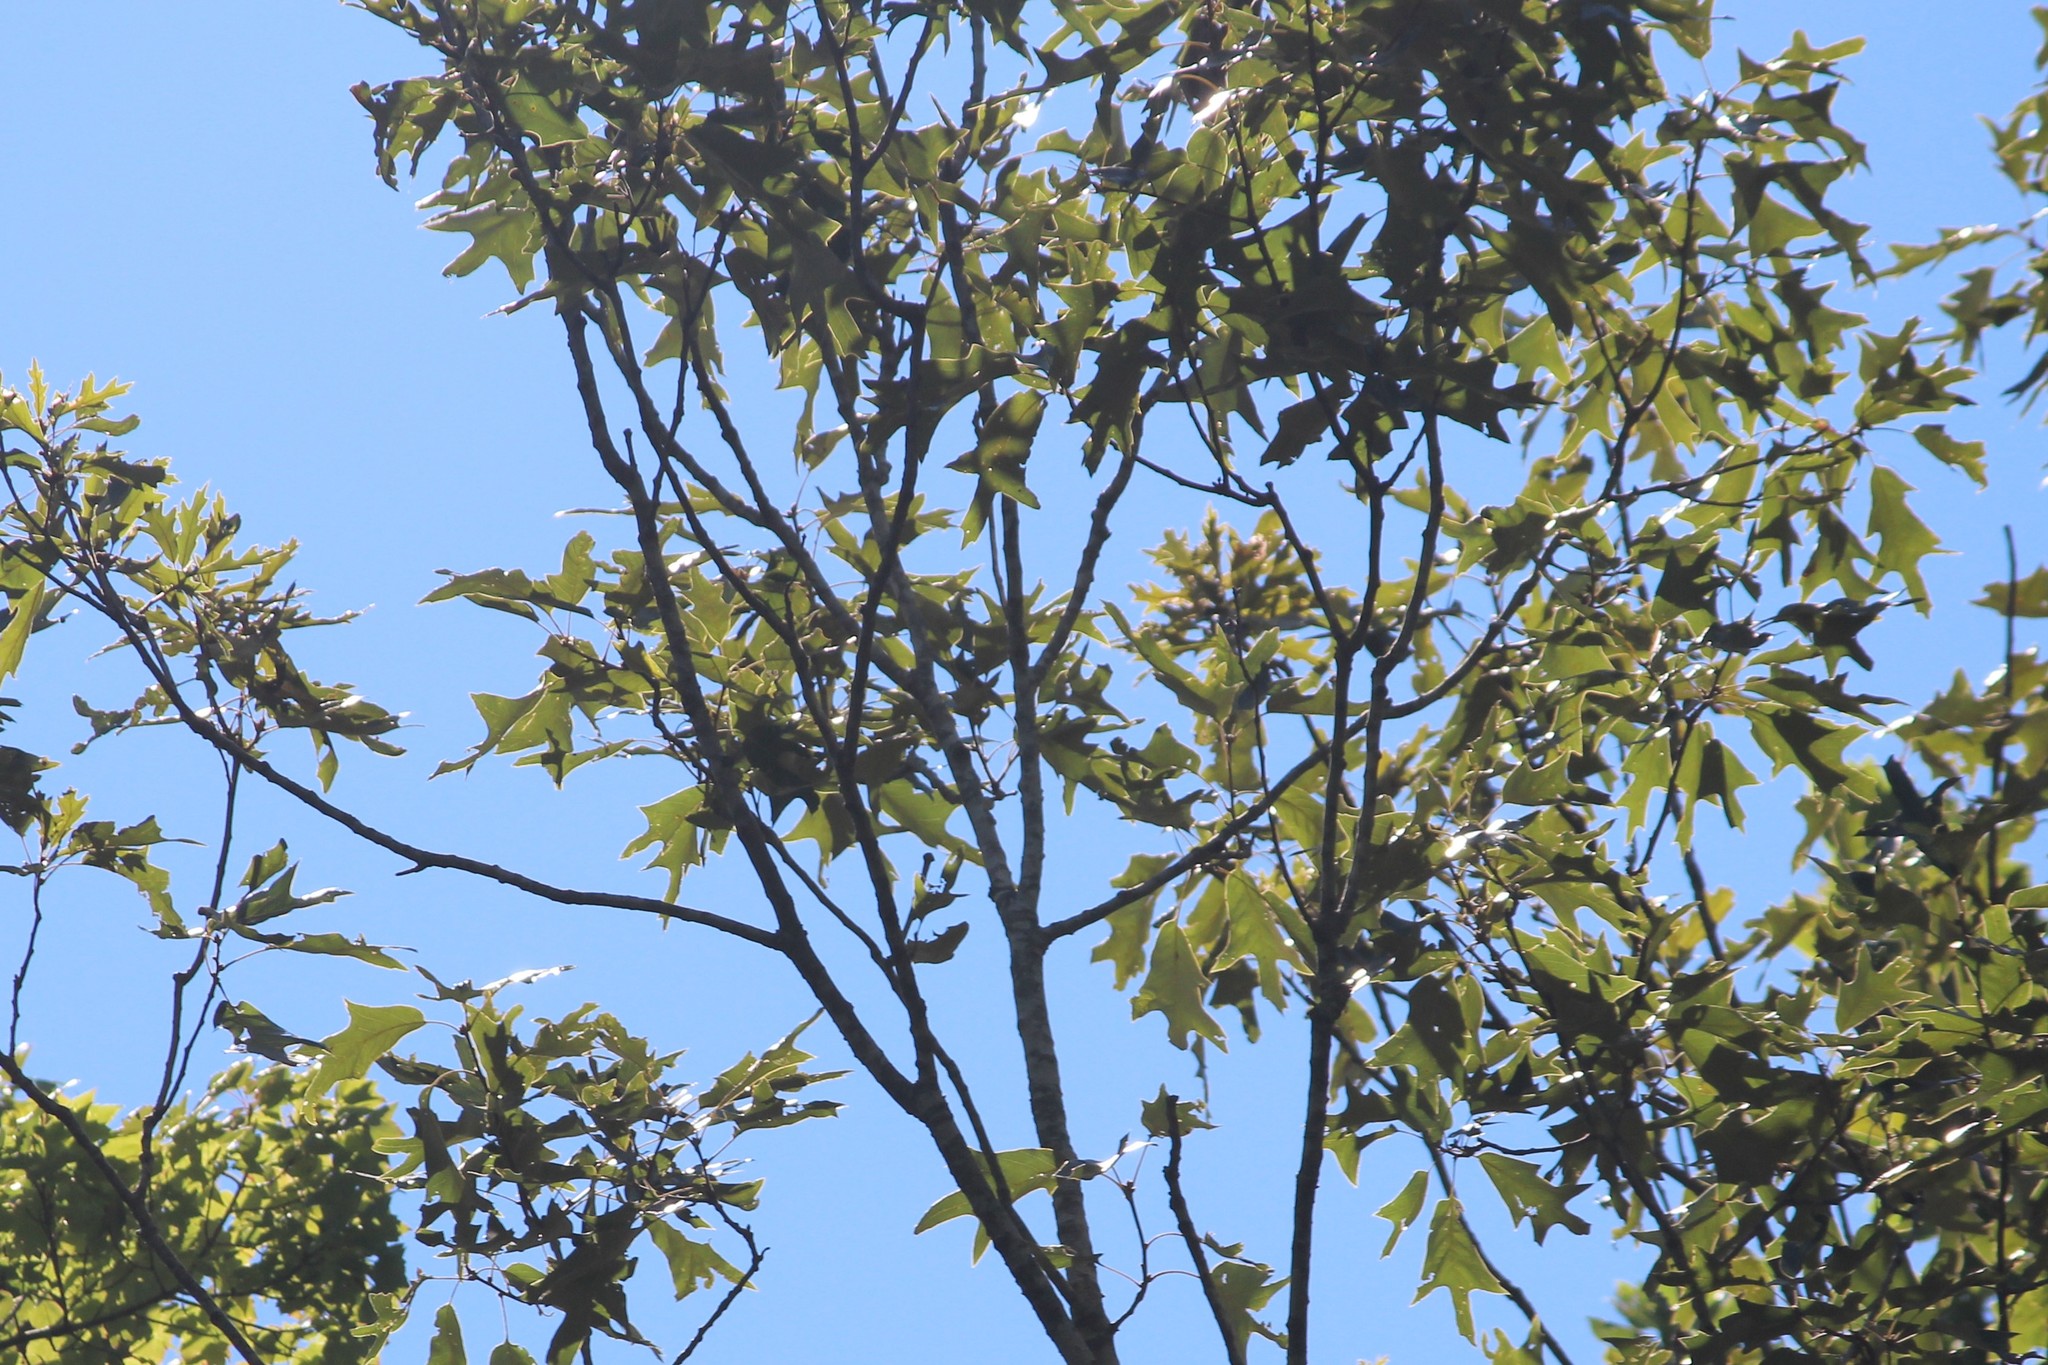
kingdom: Plantae
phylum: Tracheophyta
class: Magnoliopsida
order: Fagales
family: Fagaceae
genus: Quercus
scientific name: Quercus falcata
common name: Southern red oak
